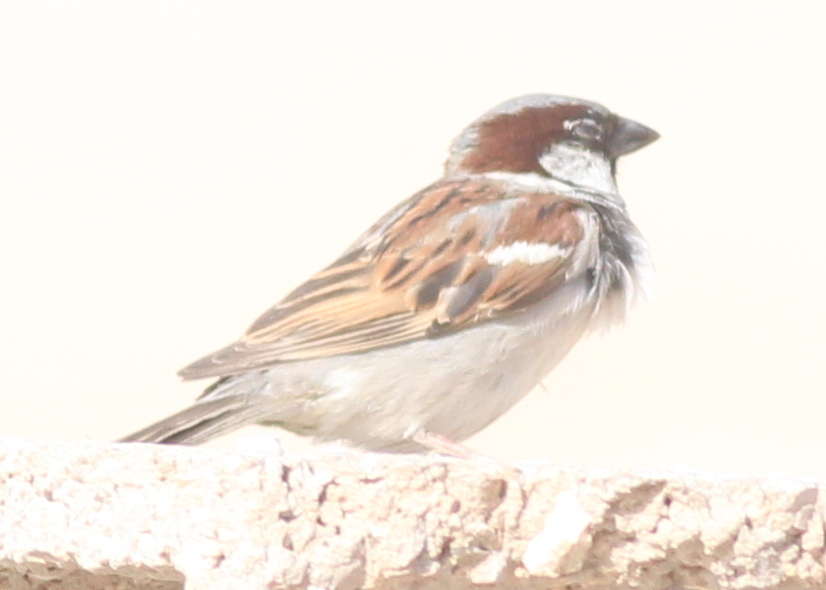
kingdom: Animalia
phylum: Chordata
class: Aves
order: Passeriformes
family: Passeridae
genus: Passer
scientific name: Passer domesticus
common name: House sparrow
